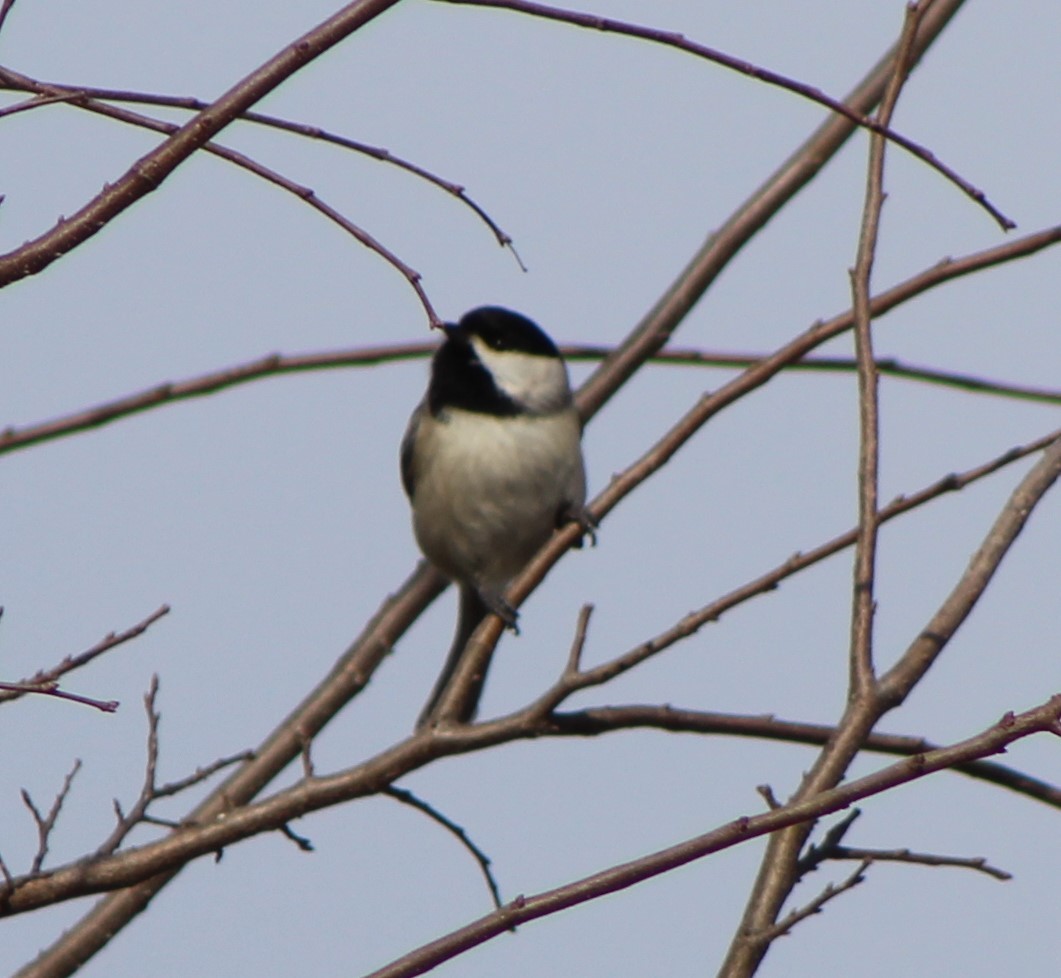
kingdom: Animalia
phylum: Chordata
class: Aves
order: Passeriformes
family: Paridae
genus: Poecile
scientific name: Poecile carolinensis
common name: Carolina chickadee
